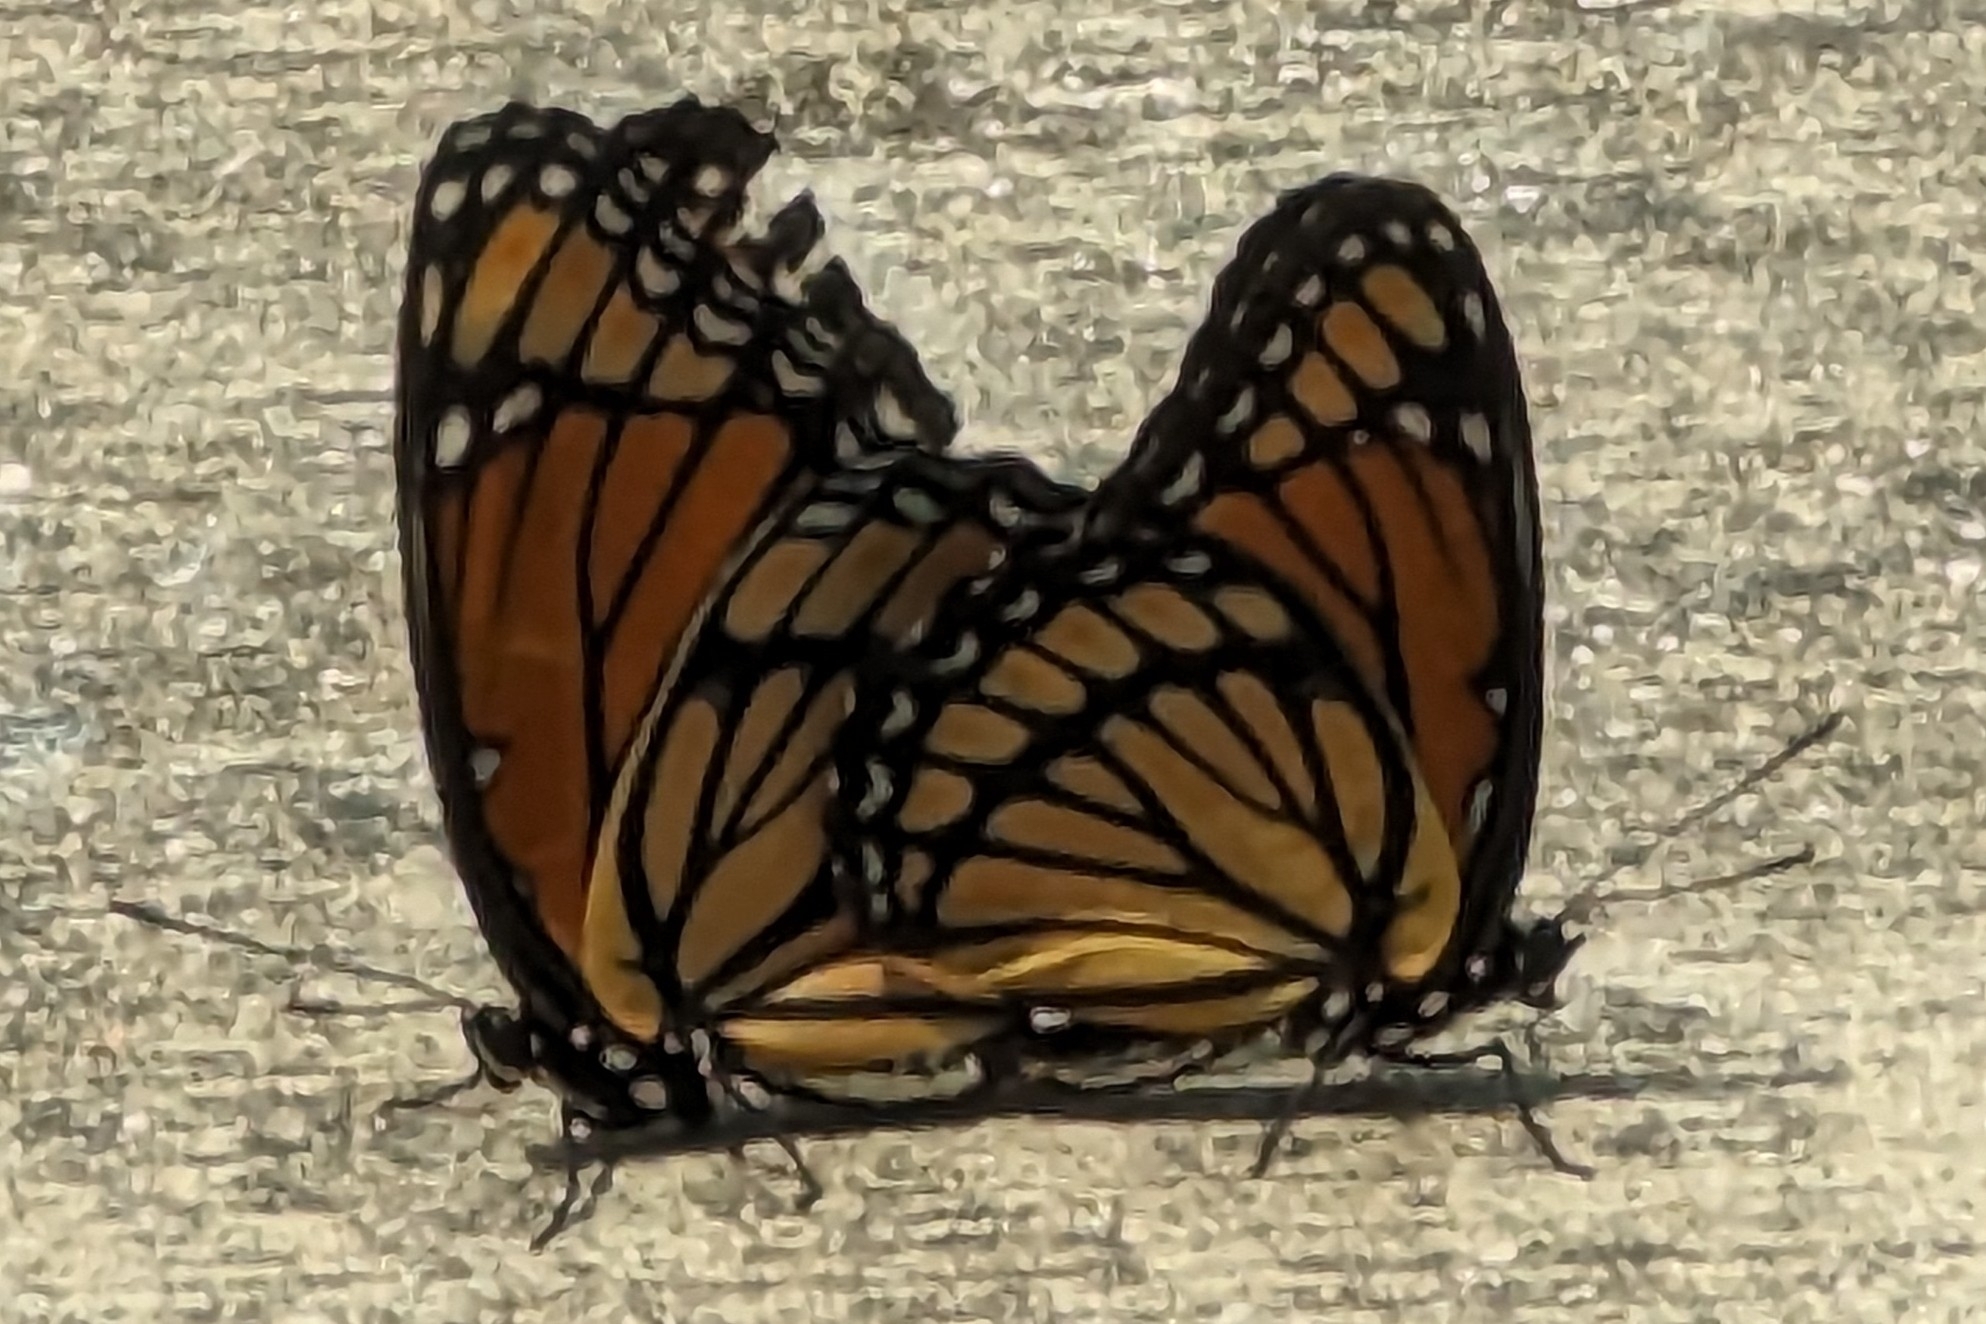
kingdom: Animalia
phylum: Arthropoda
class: Insecta
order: Lepidoptera
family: Nymphalidae
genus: Limenitis
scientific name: Limenitis archippus
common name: Viceroy
